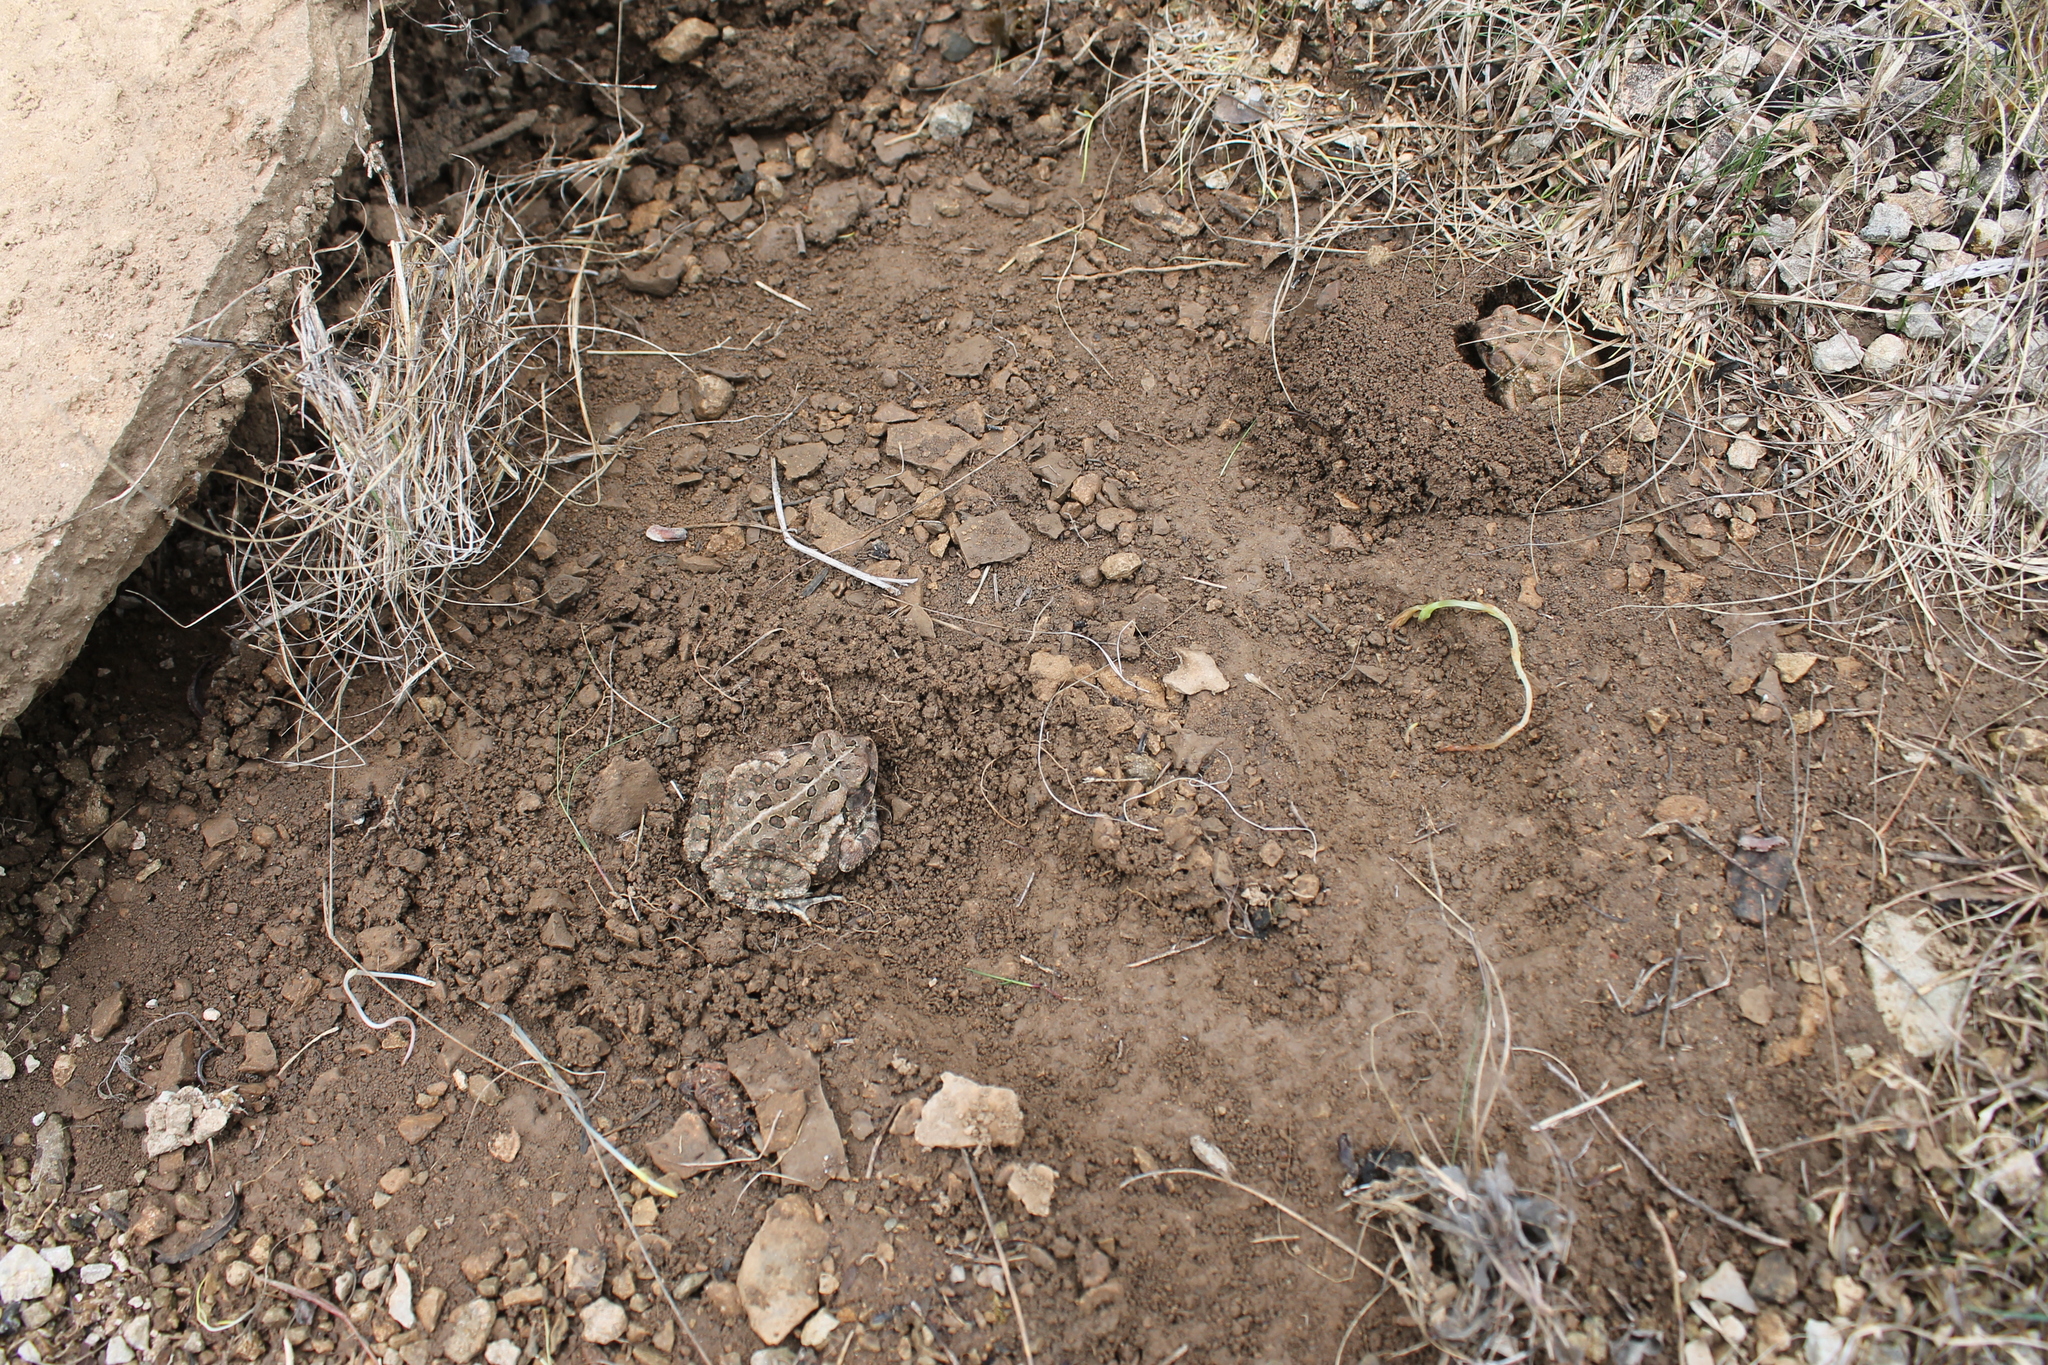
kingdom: Animalia
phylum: Chordata
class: Amphibia
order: Anura
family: Bufonidae
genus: Anaxyrus
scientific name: Anaxyrus fowleri
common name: Fowler's toad
